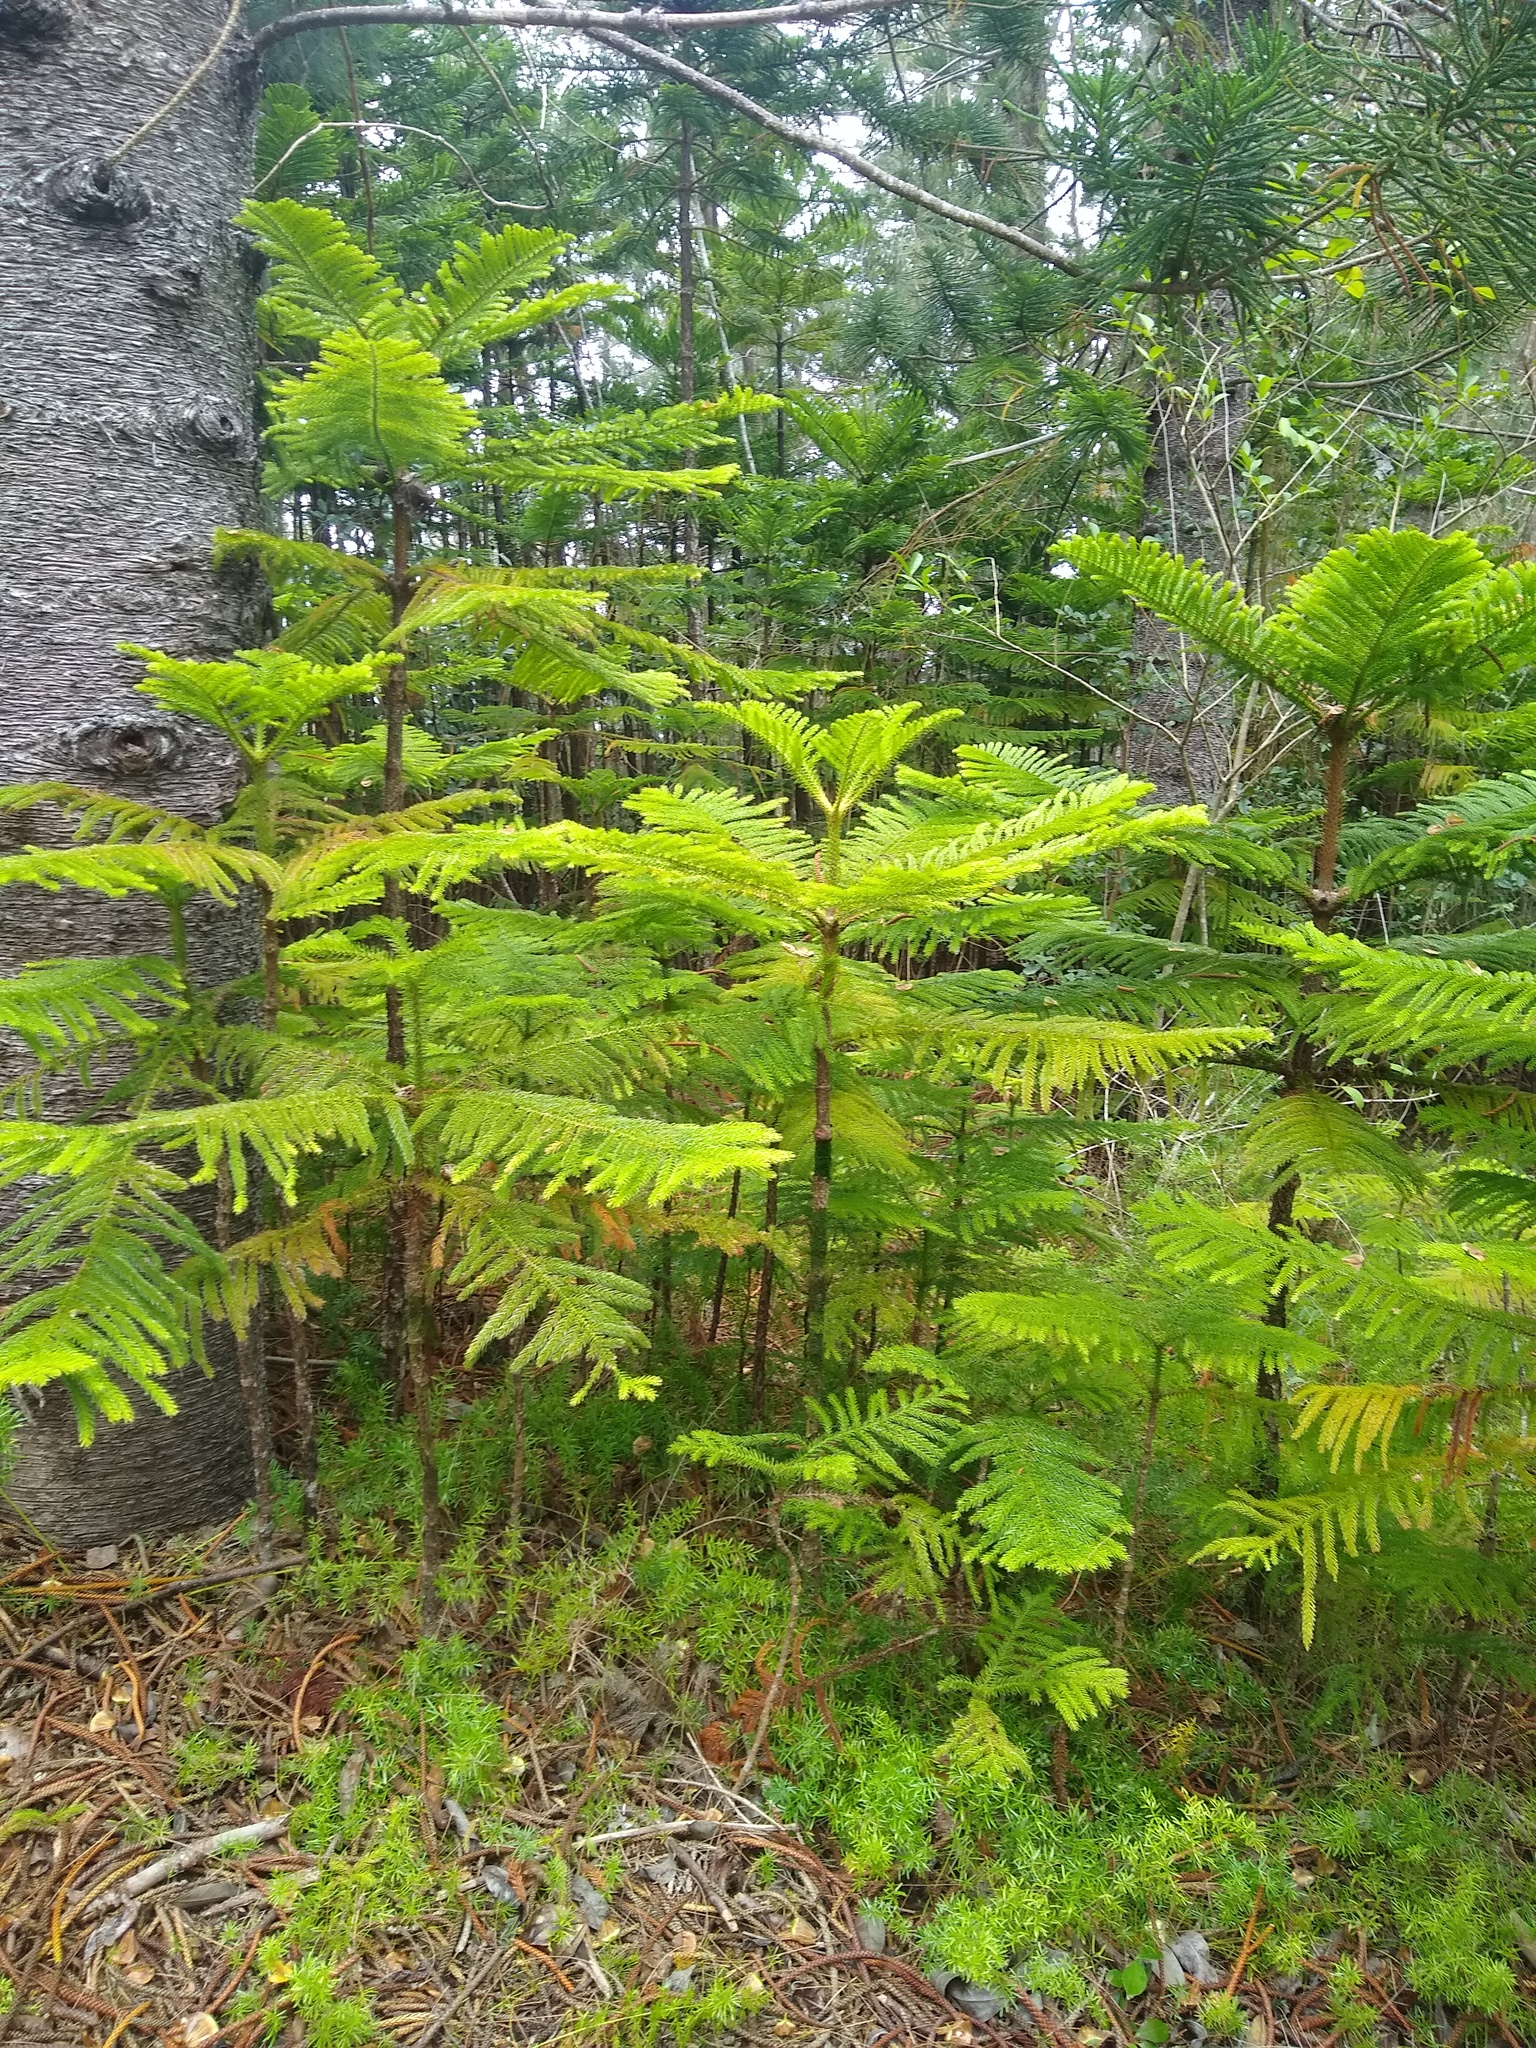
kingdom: Plantae
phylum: Tracheophyta
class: Pinopsida
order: Pinales
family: Araucariaceae
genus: Araucaria
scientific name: Araucaria columnaris
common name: Coral reef araucaria
